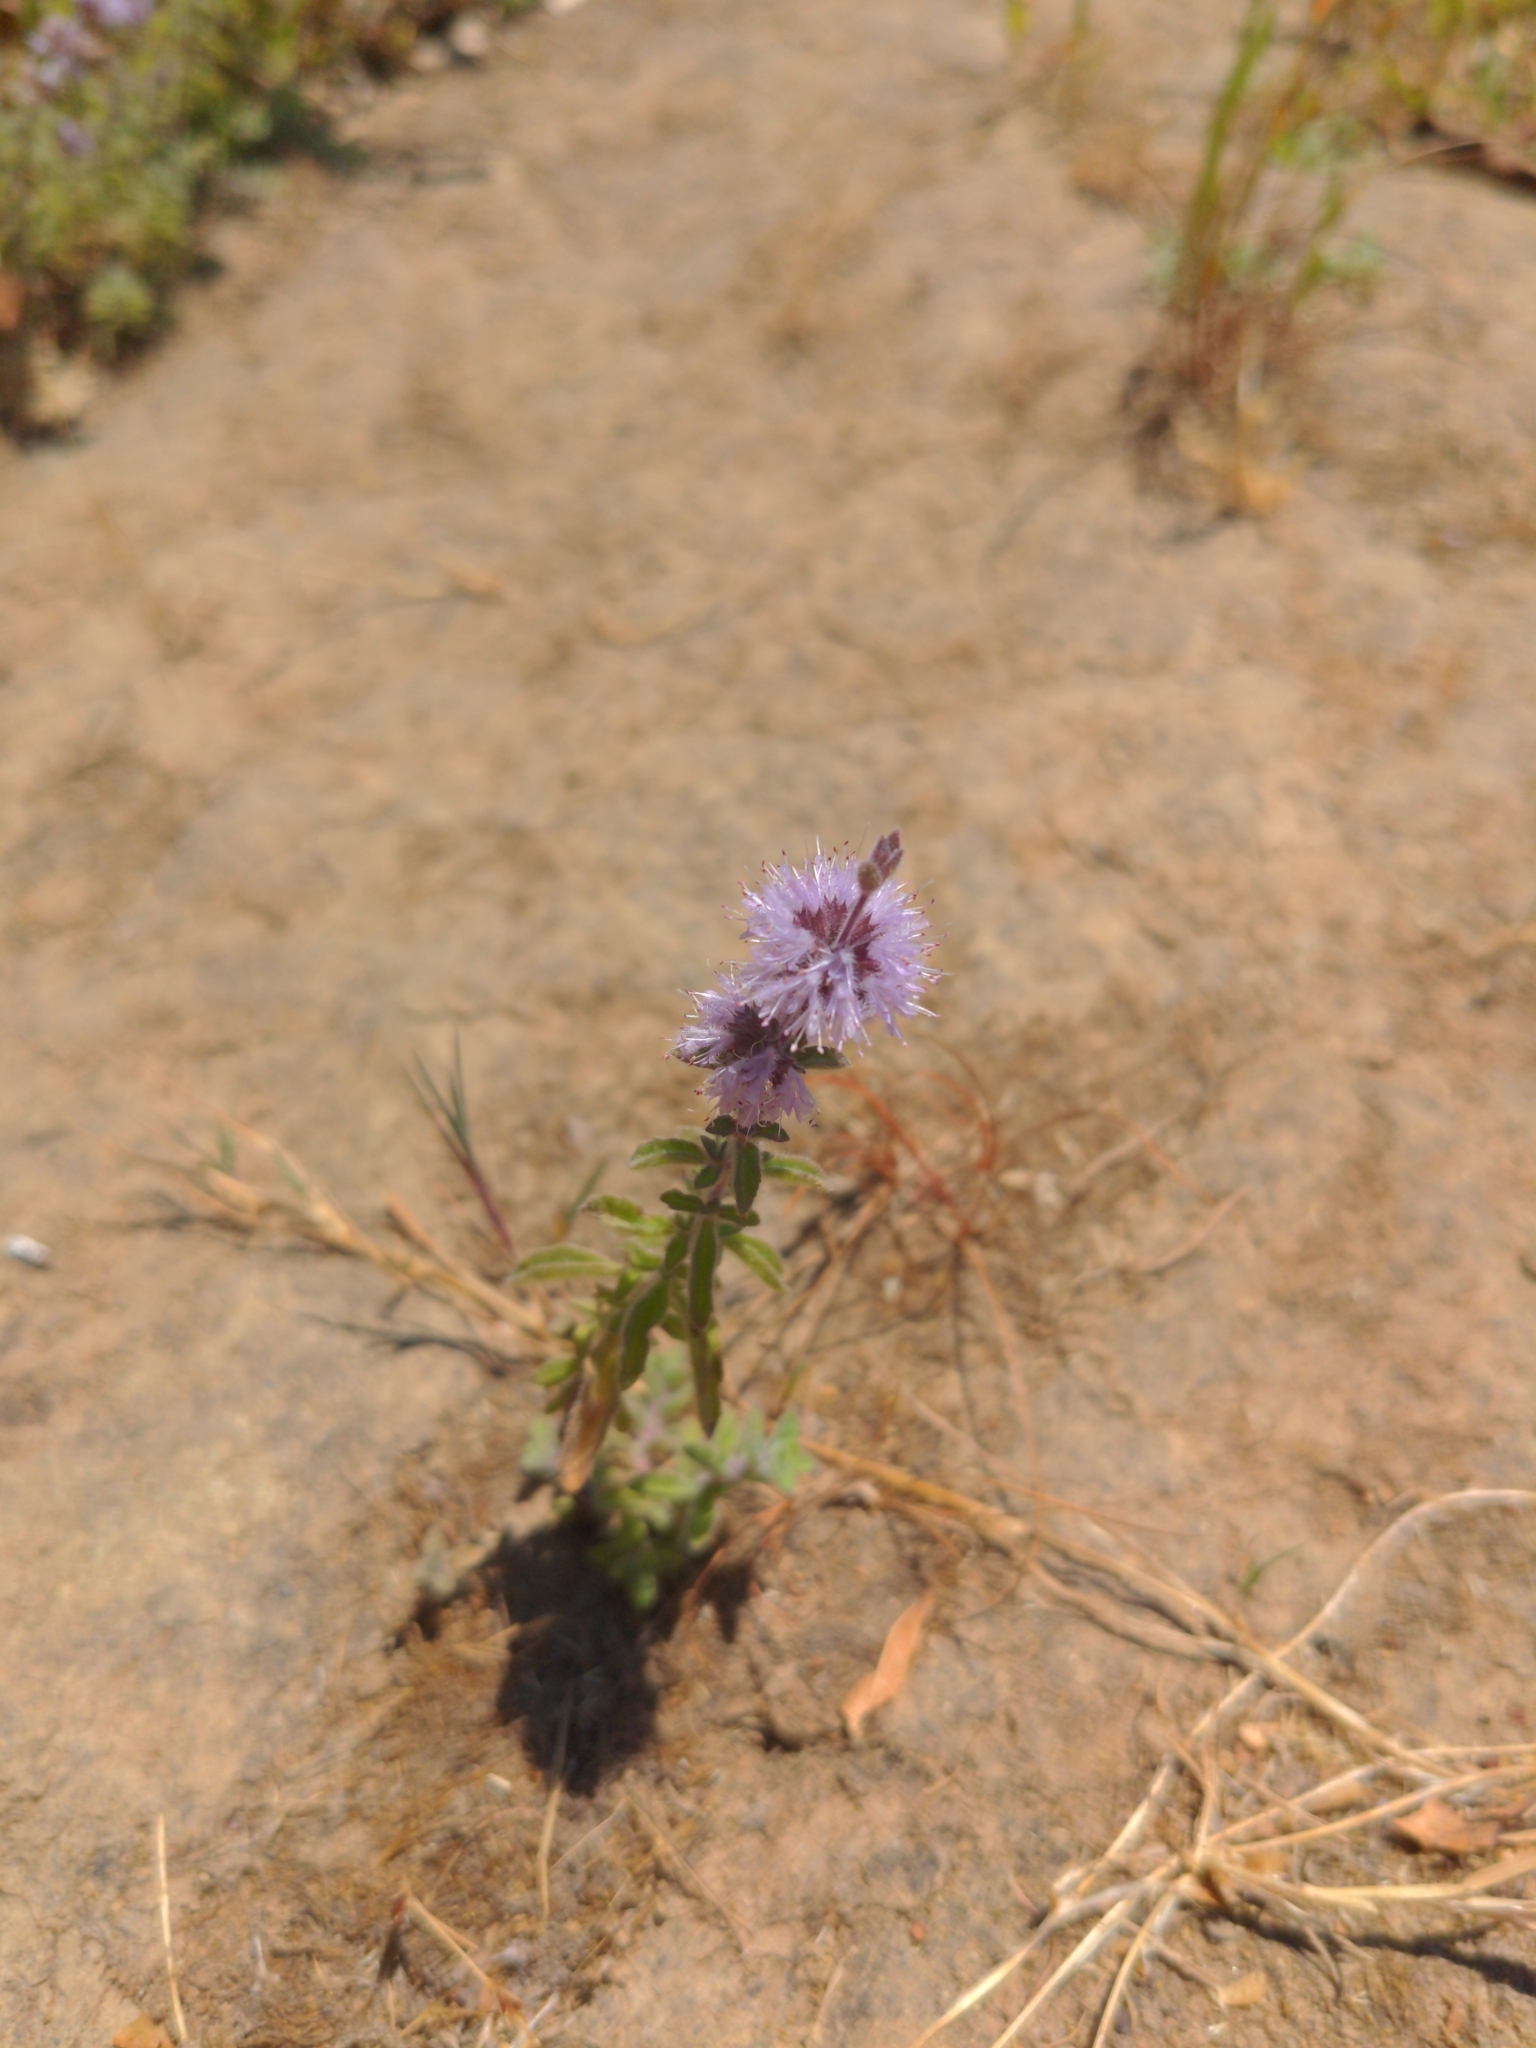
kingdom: Plantae
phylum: Tracheophyta
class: Magnoliopsida
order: Lamiales
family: Lamiaceae
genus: Mentha
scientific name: Mentha pulegium
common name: Pennyroyal
